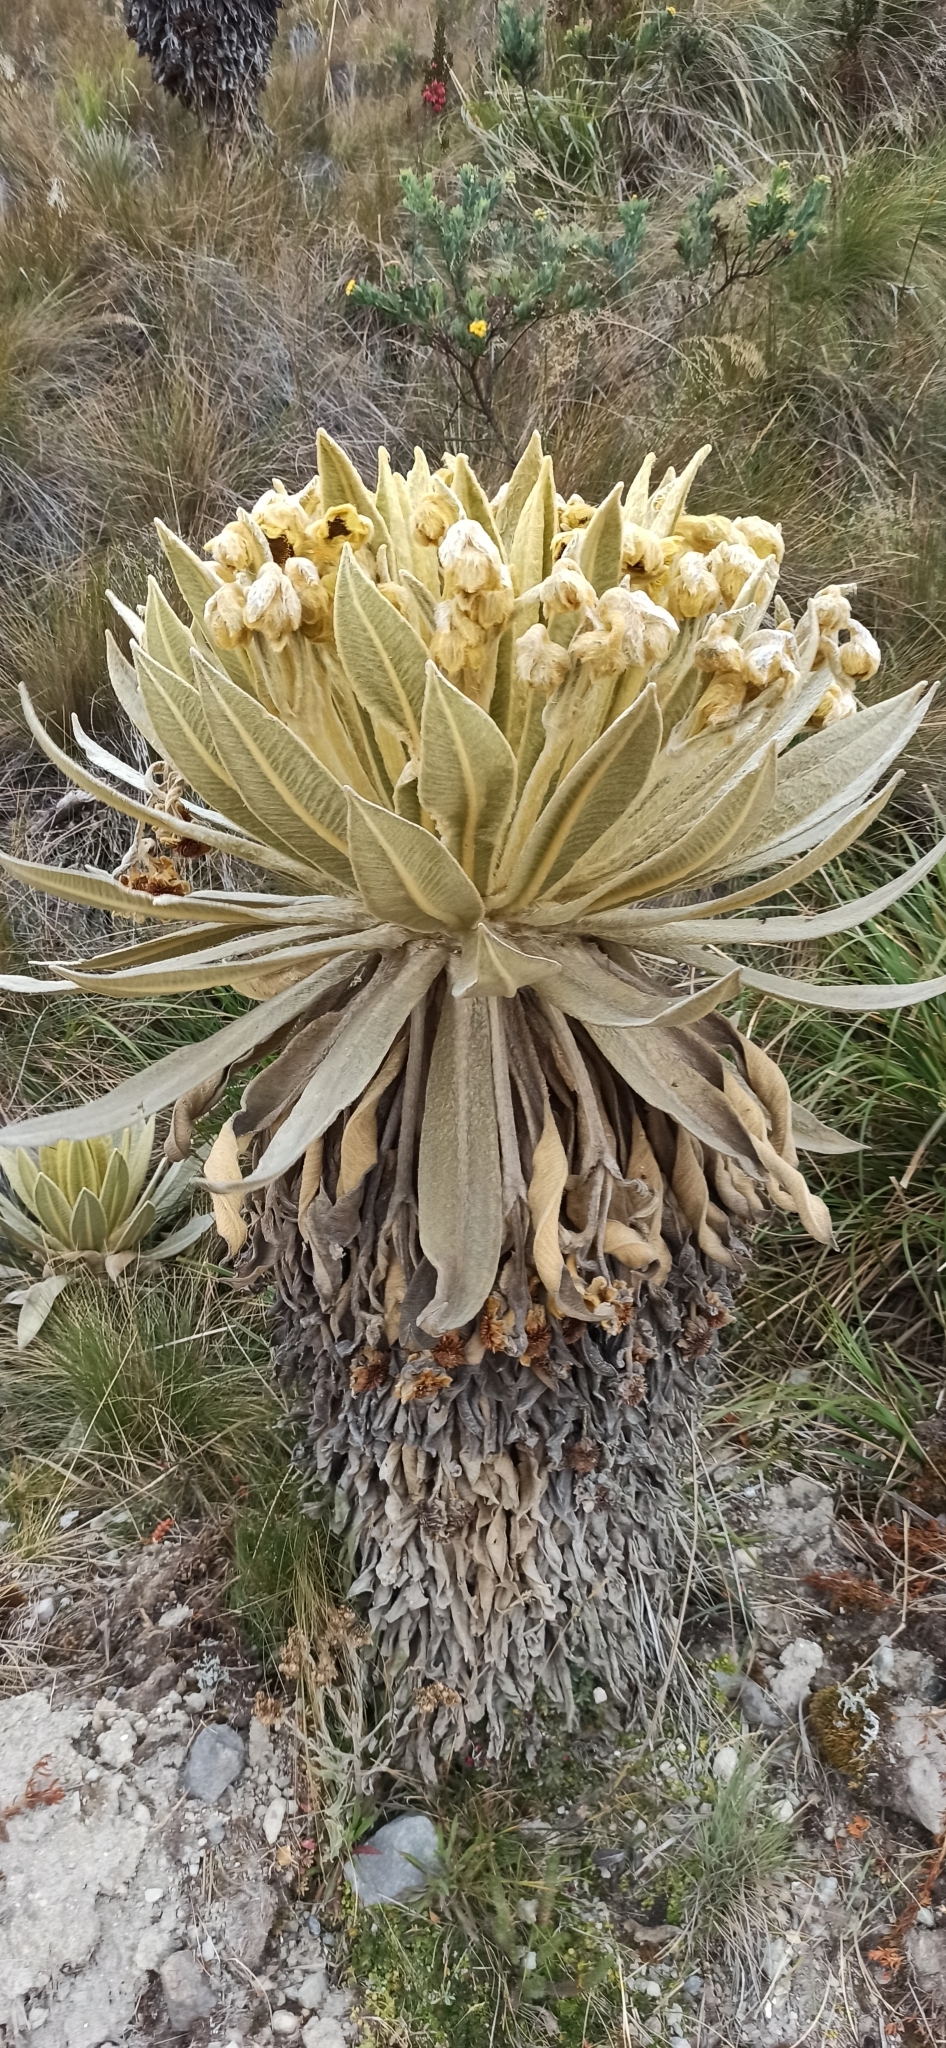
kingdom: Plantae
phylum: Tracheophyta
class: Magnoliopsida
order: Asterales
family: Asteraceae
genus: Espeletia
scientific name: Espeletia pycnophylla
